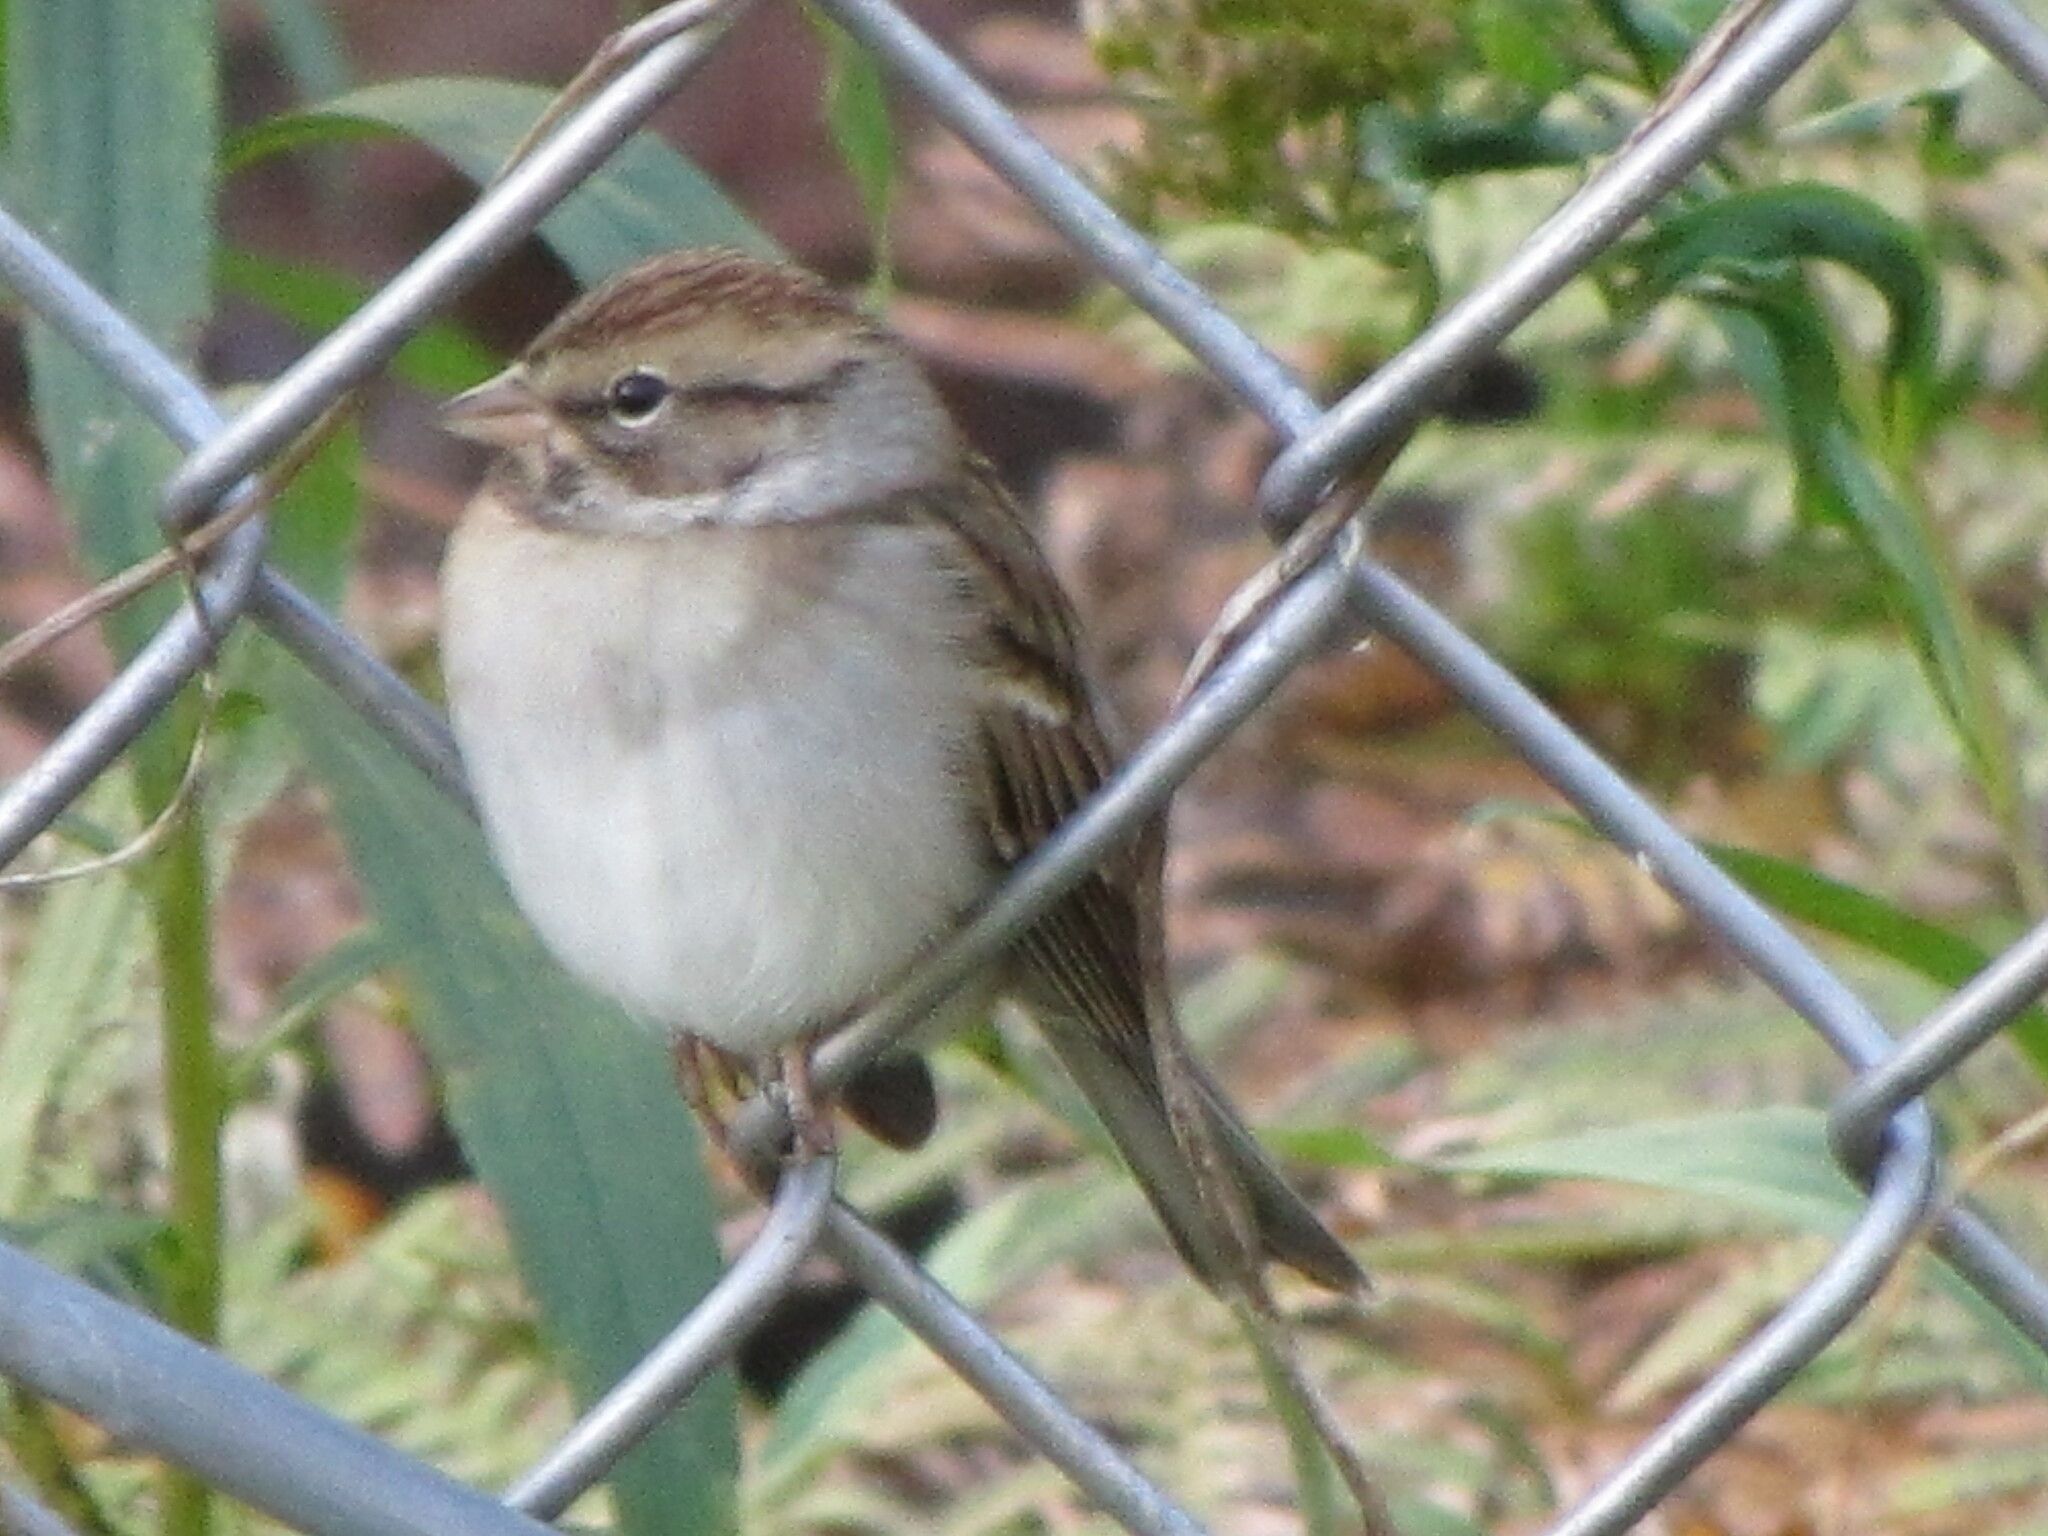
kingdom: Animalia
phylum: Chordata
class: Aves
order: Passeriformes
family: Passerellidae
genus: Spizella
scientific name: Spizella passerina
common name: Chipping sparrow
